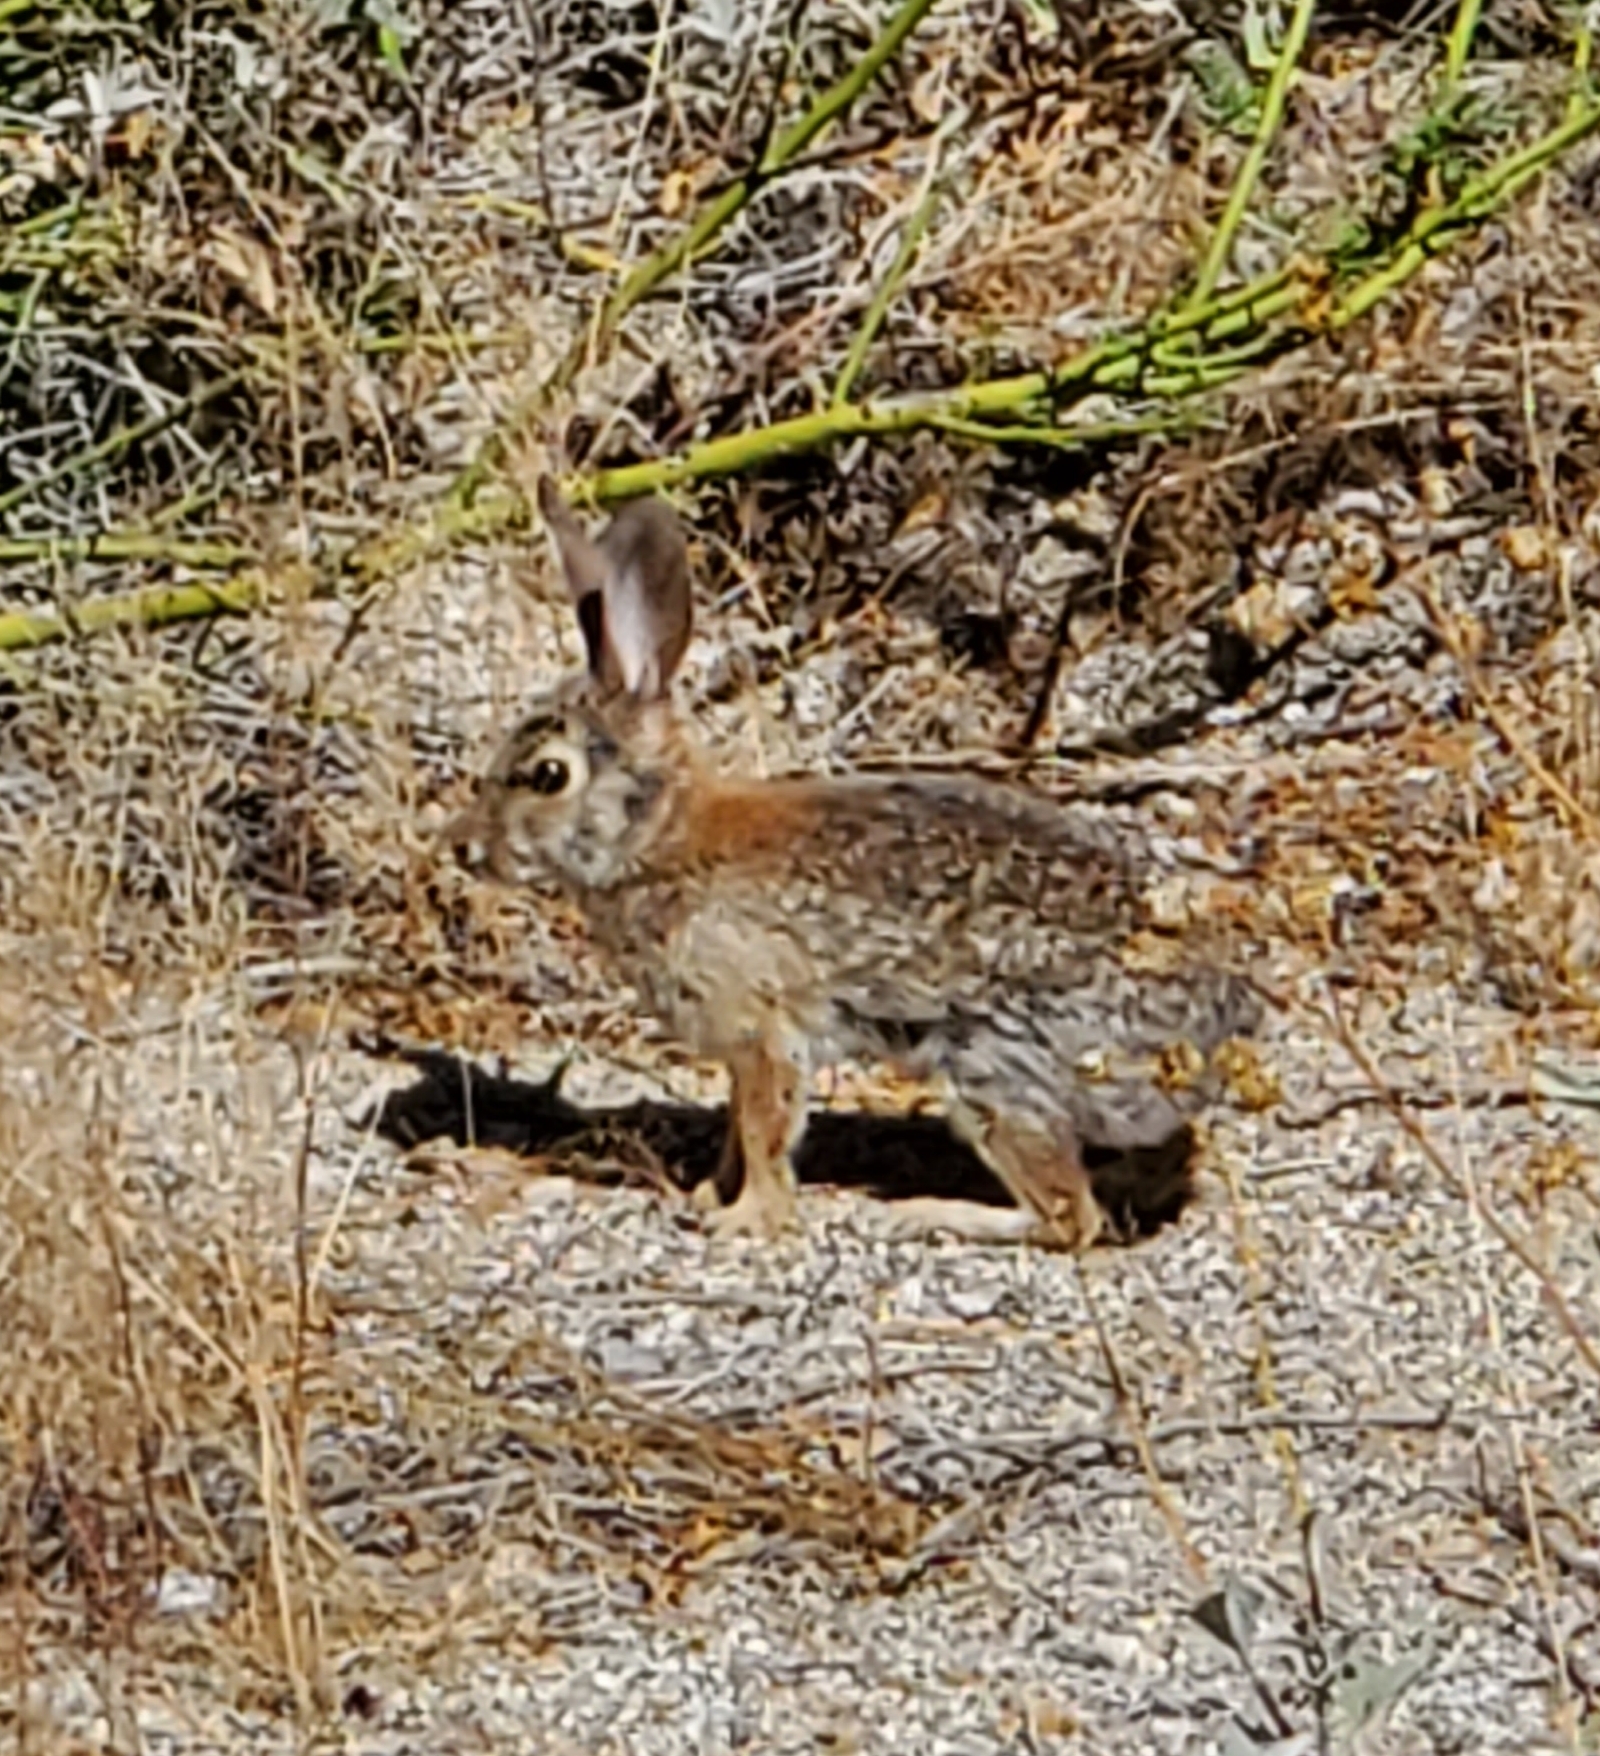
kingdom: Animalia
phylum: Chordata
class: Mammalia
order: Lagomorpha
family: Leporidae
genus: Sylvilagus
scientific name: Sylvilagus audubonii
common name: Desert cottontail
